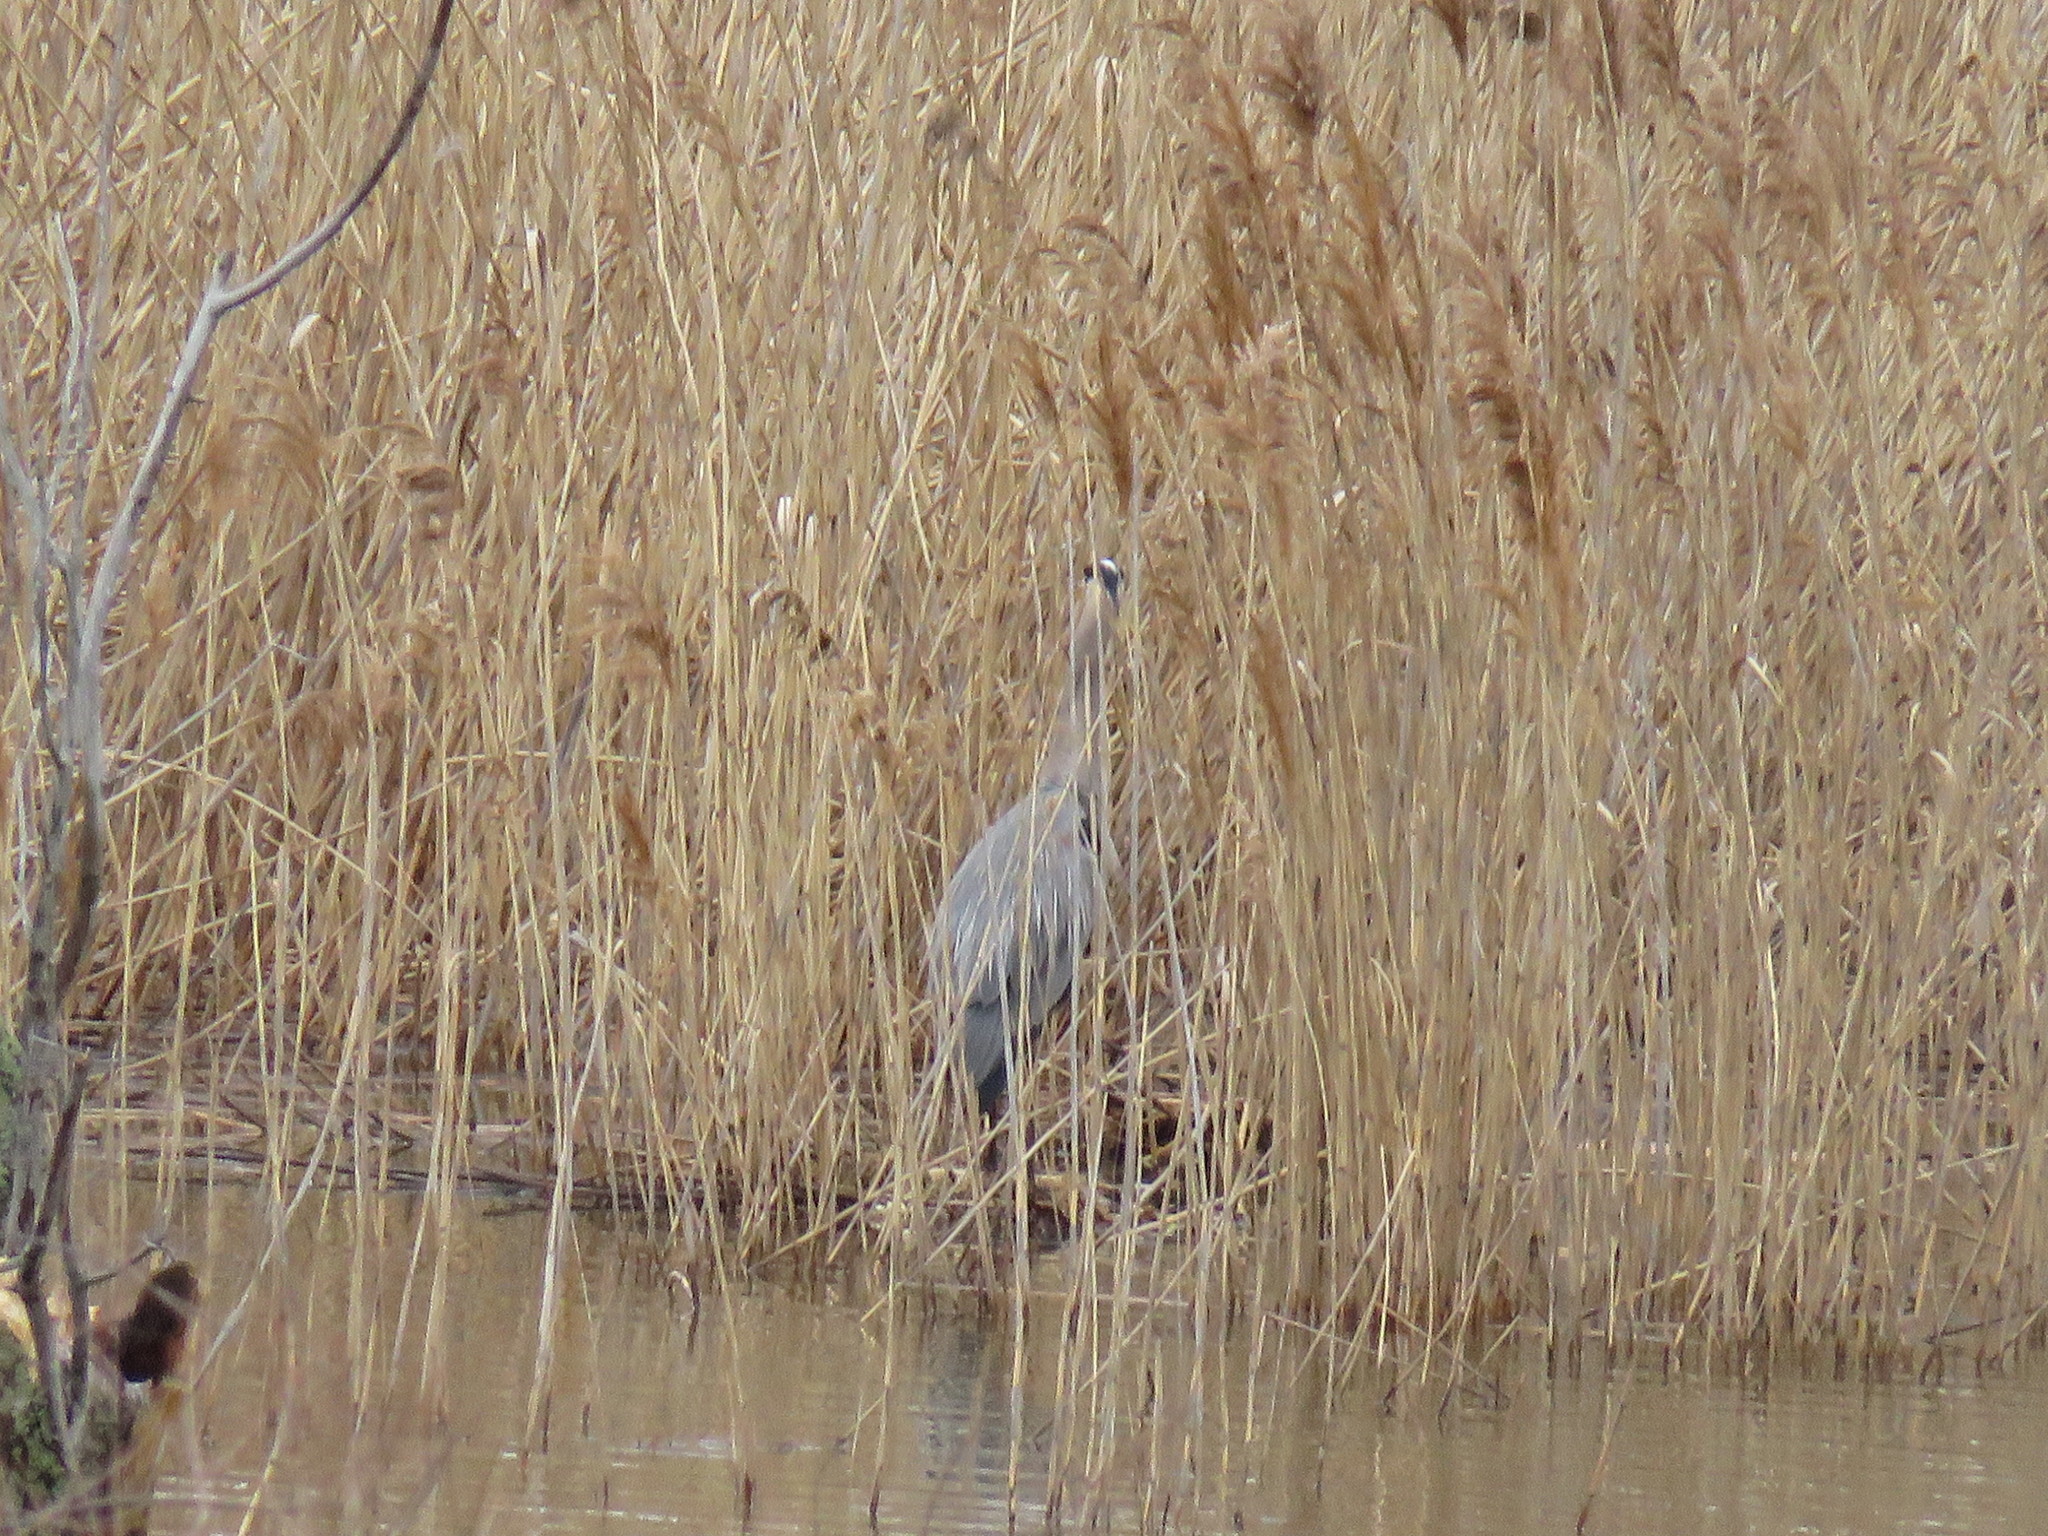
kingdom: Animalia
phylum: Chordata
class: Aves
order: Pelecaniformes
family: Ardeidae
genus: Ardea
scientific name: Ardea herodias
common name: Great blue heron
